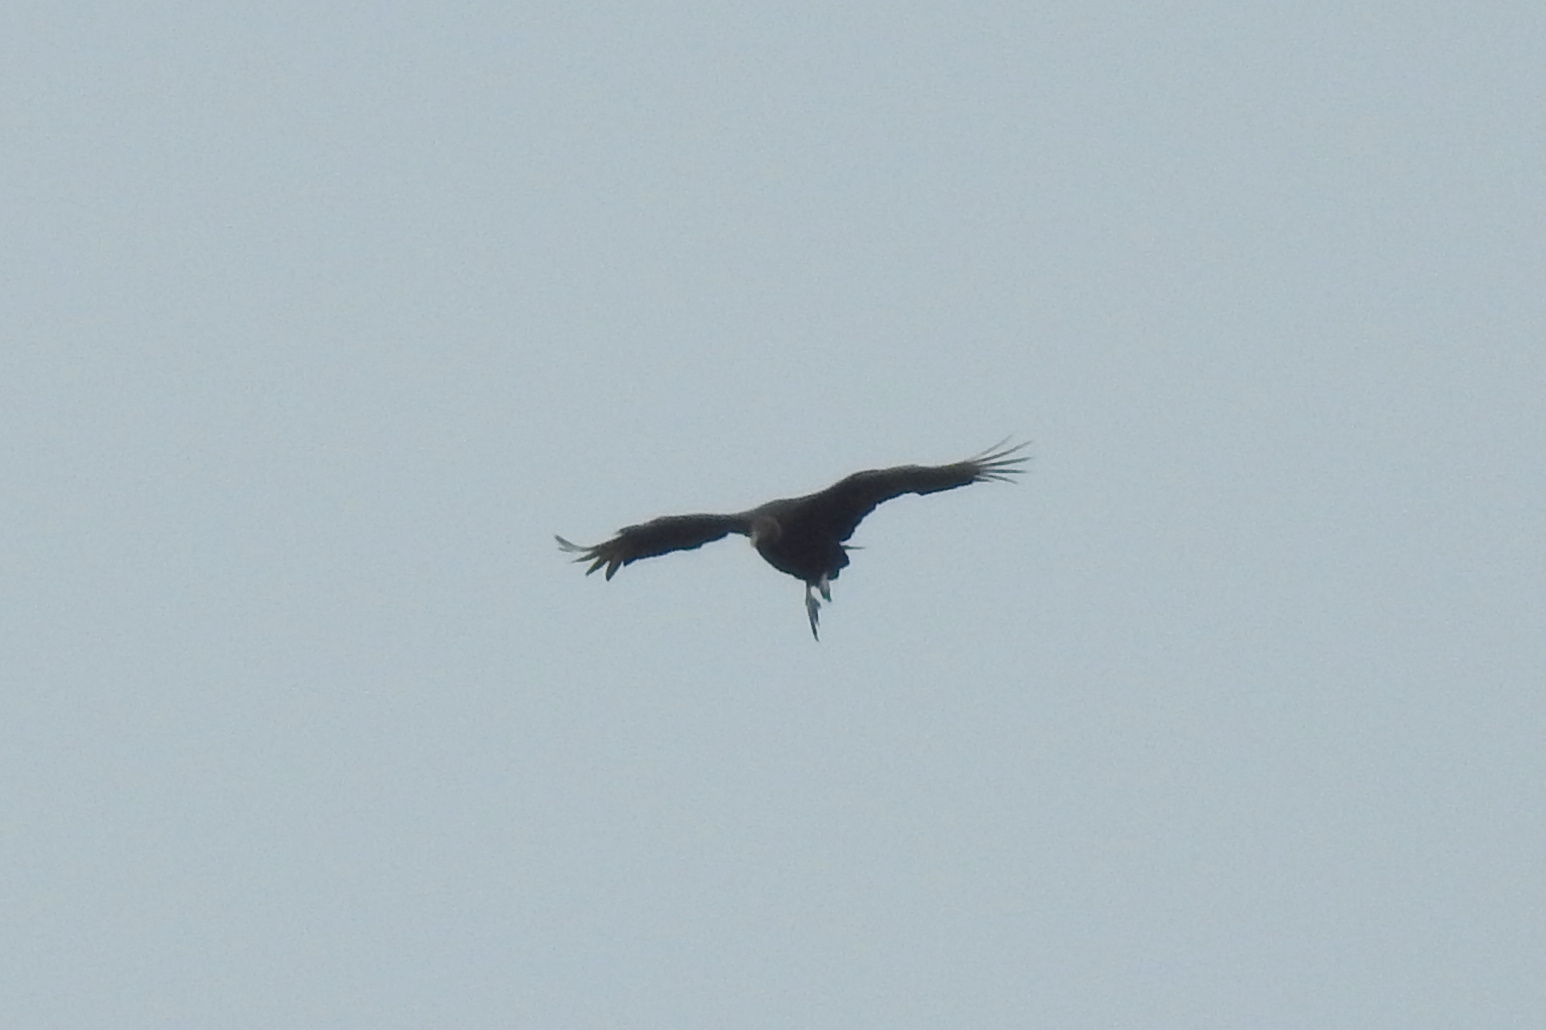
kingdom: Animalia
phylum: Chordata
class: Aves
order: Accipitriformes
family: Cathartidae
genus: Coragyps
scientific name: Coragyps atratus
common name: Black vulture
